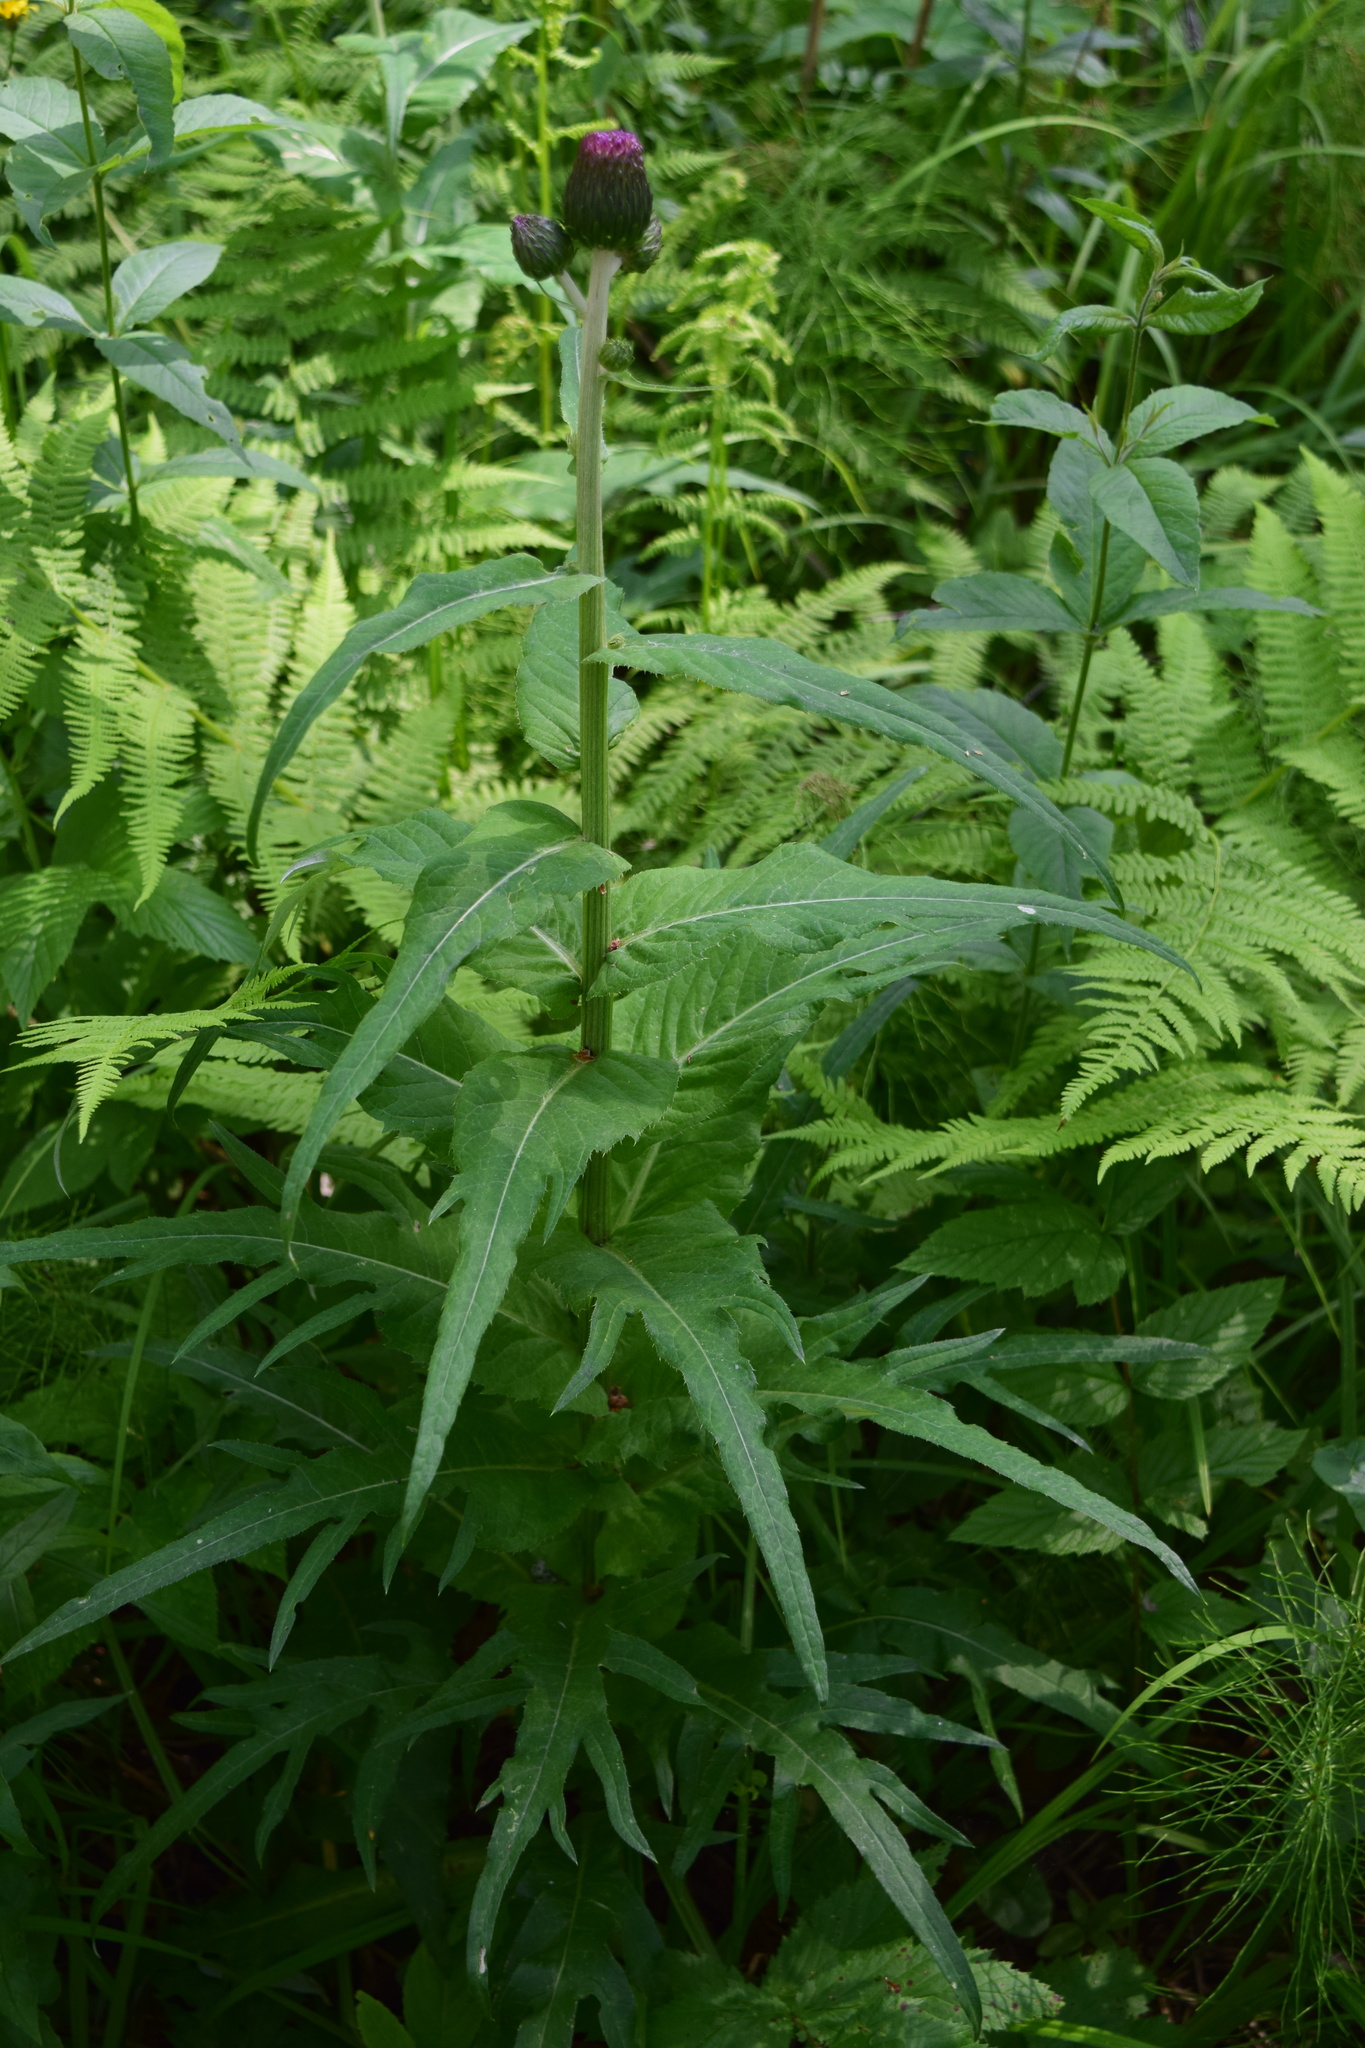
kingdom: Plantae
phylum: Tracheophyta
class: Magnoliopsida
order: Asterales
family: Asteraceae
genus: Cirsium
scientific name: Cirsium heterophyllum
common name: Melancholy thistle
